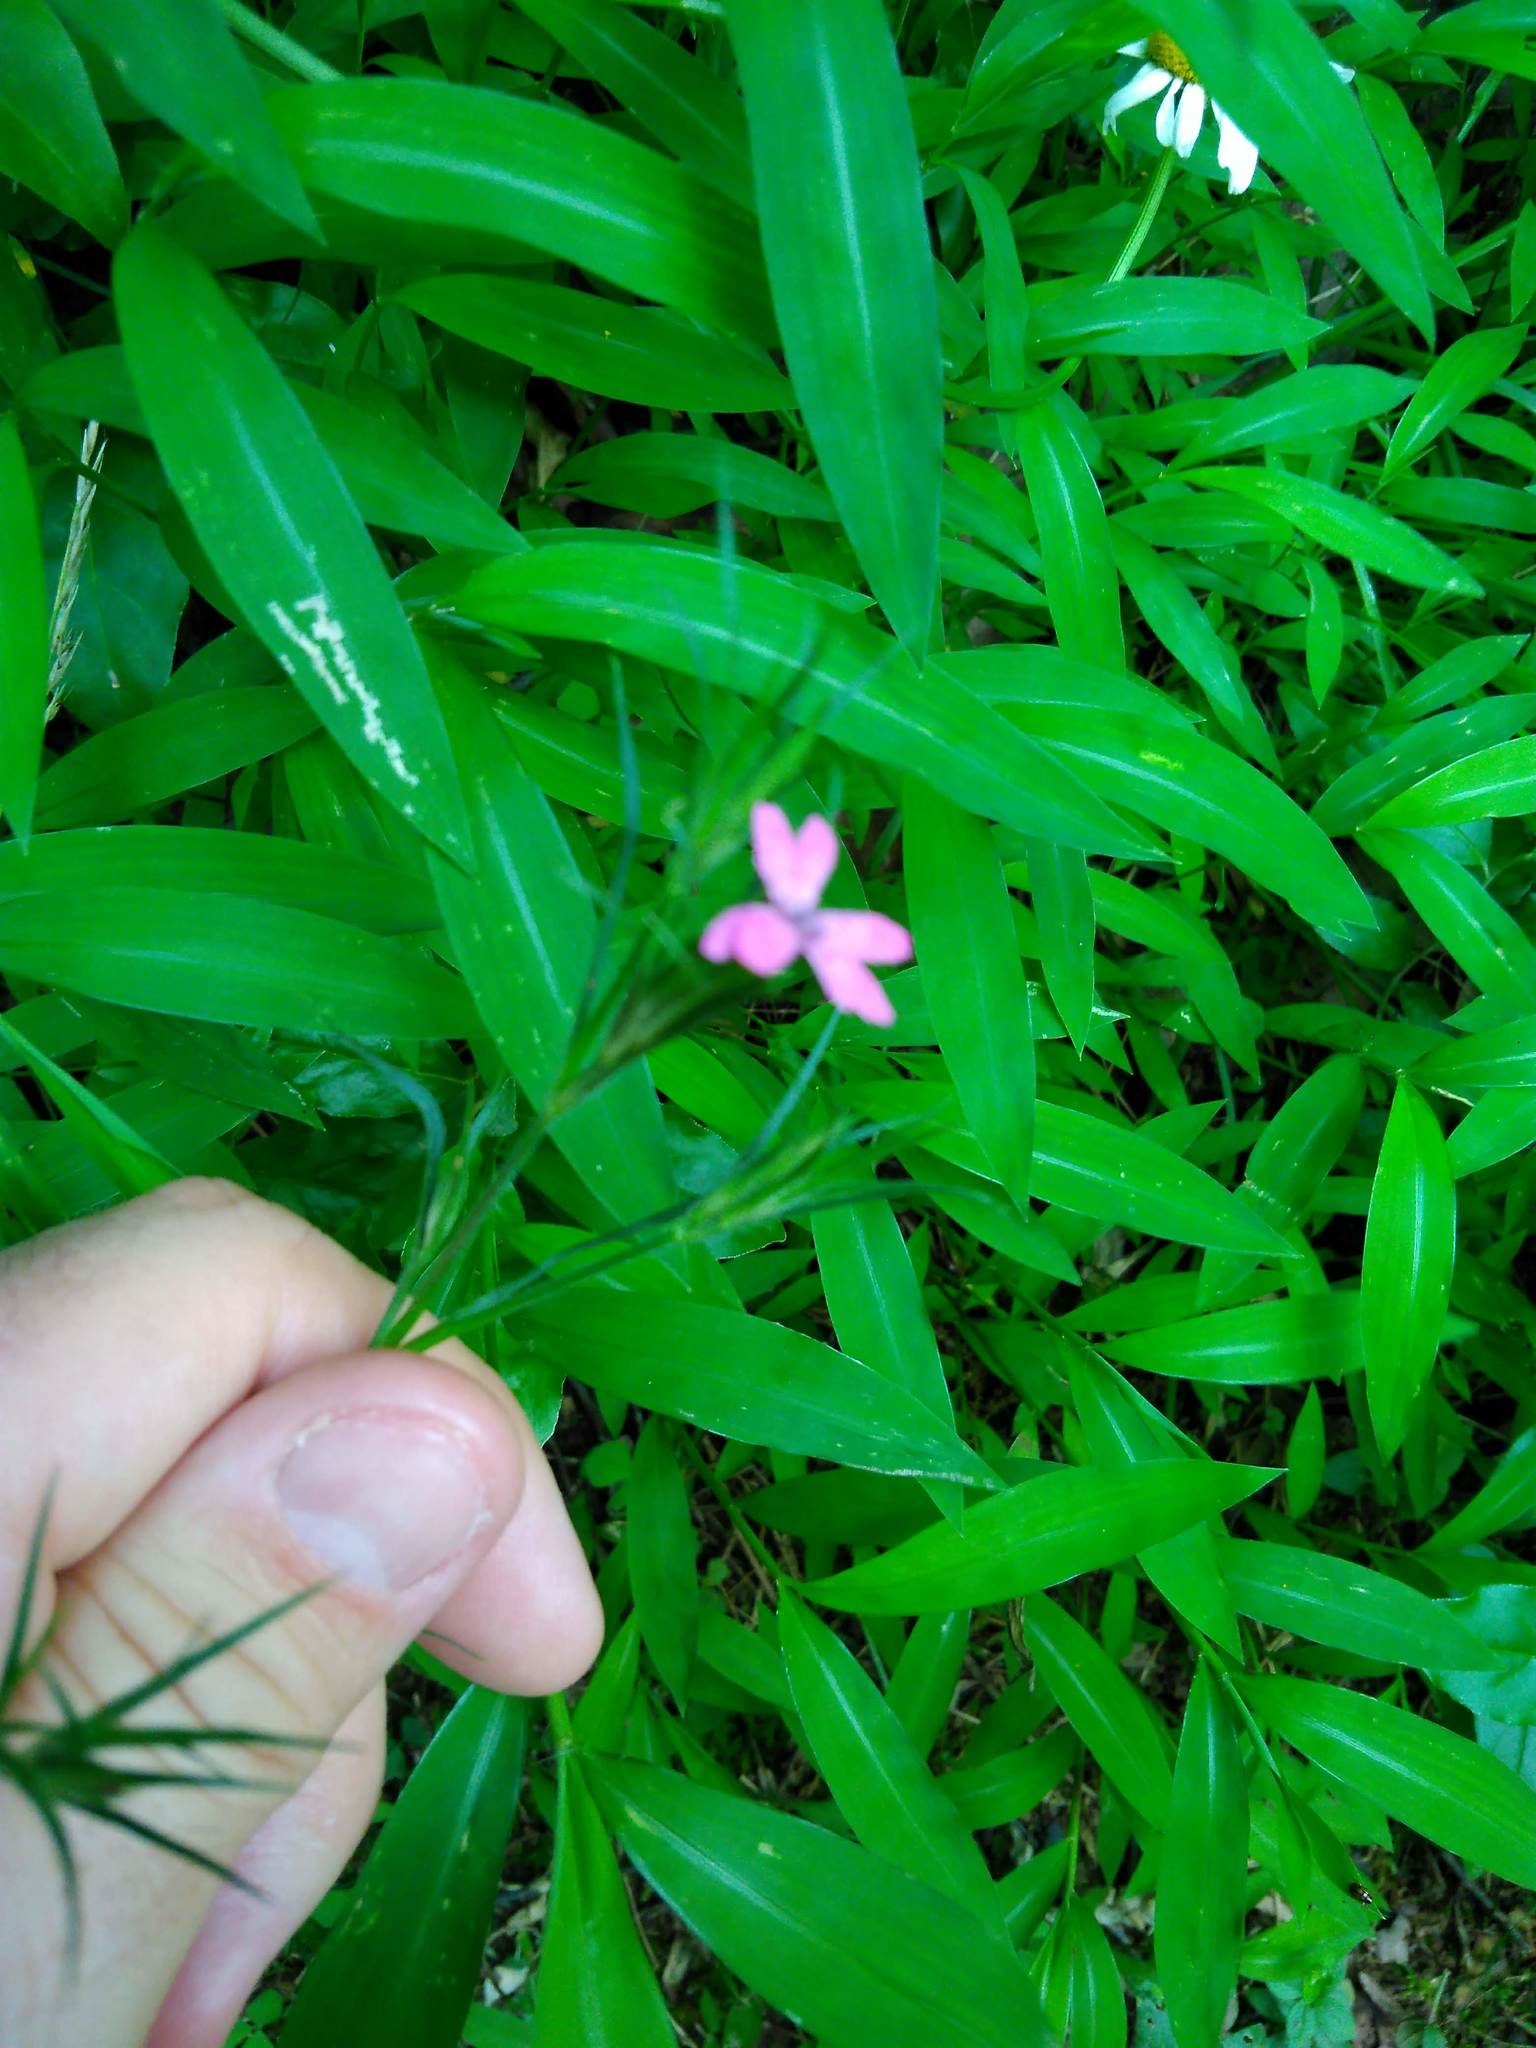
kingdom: Plantae
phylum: Tracheophyta
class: Magnoliopsida
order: Caryophyllales
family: Caryophyllaceae
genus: Dianthus
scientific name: Dianthus armeria
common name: Deptford pink
